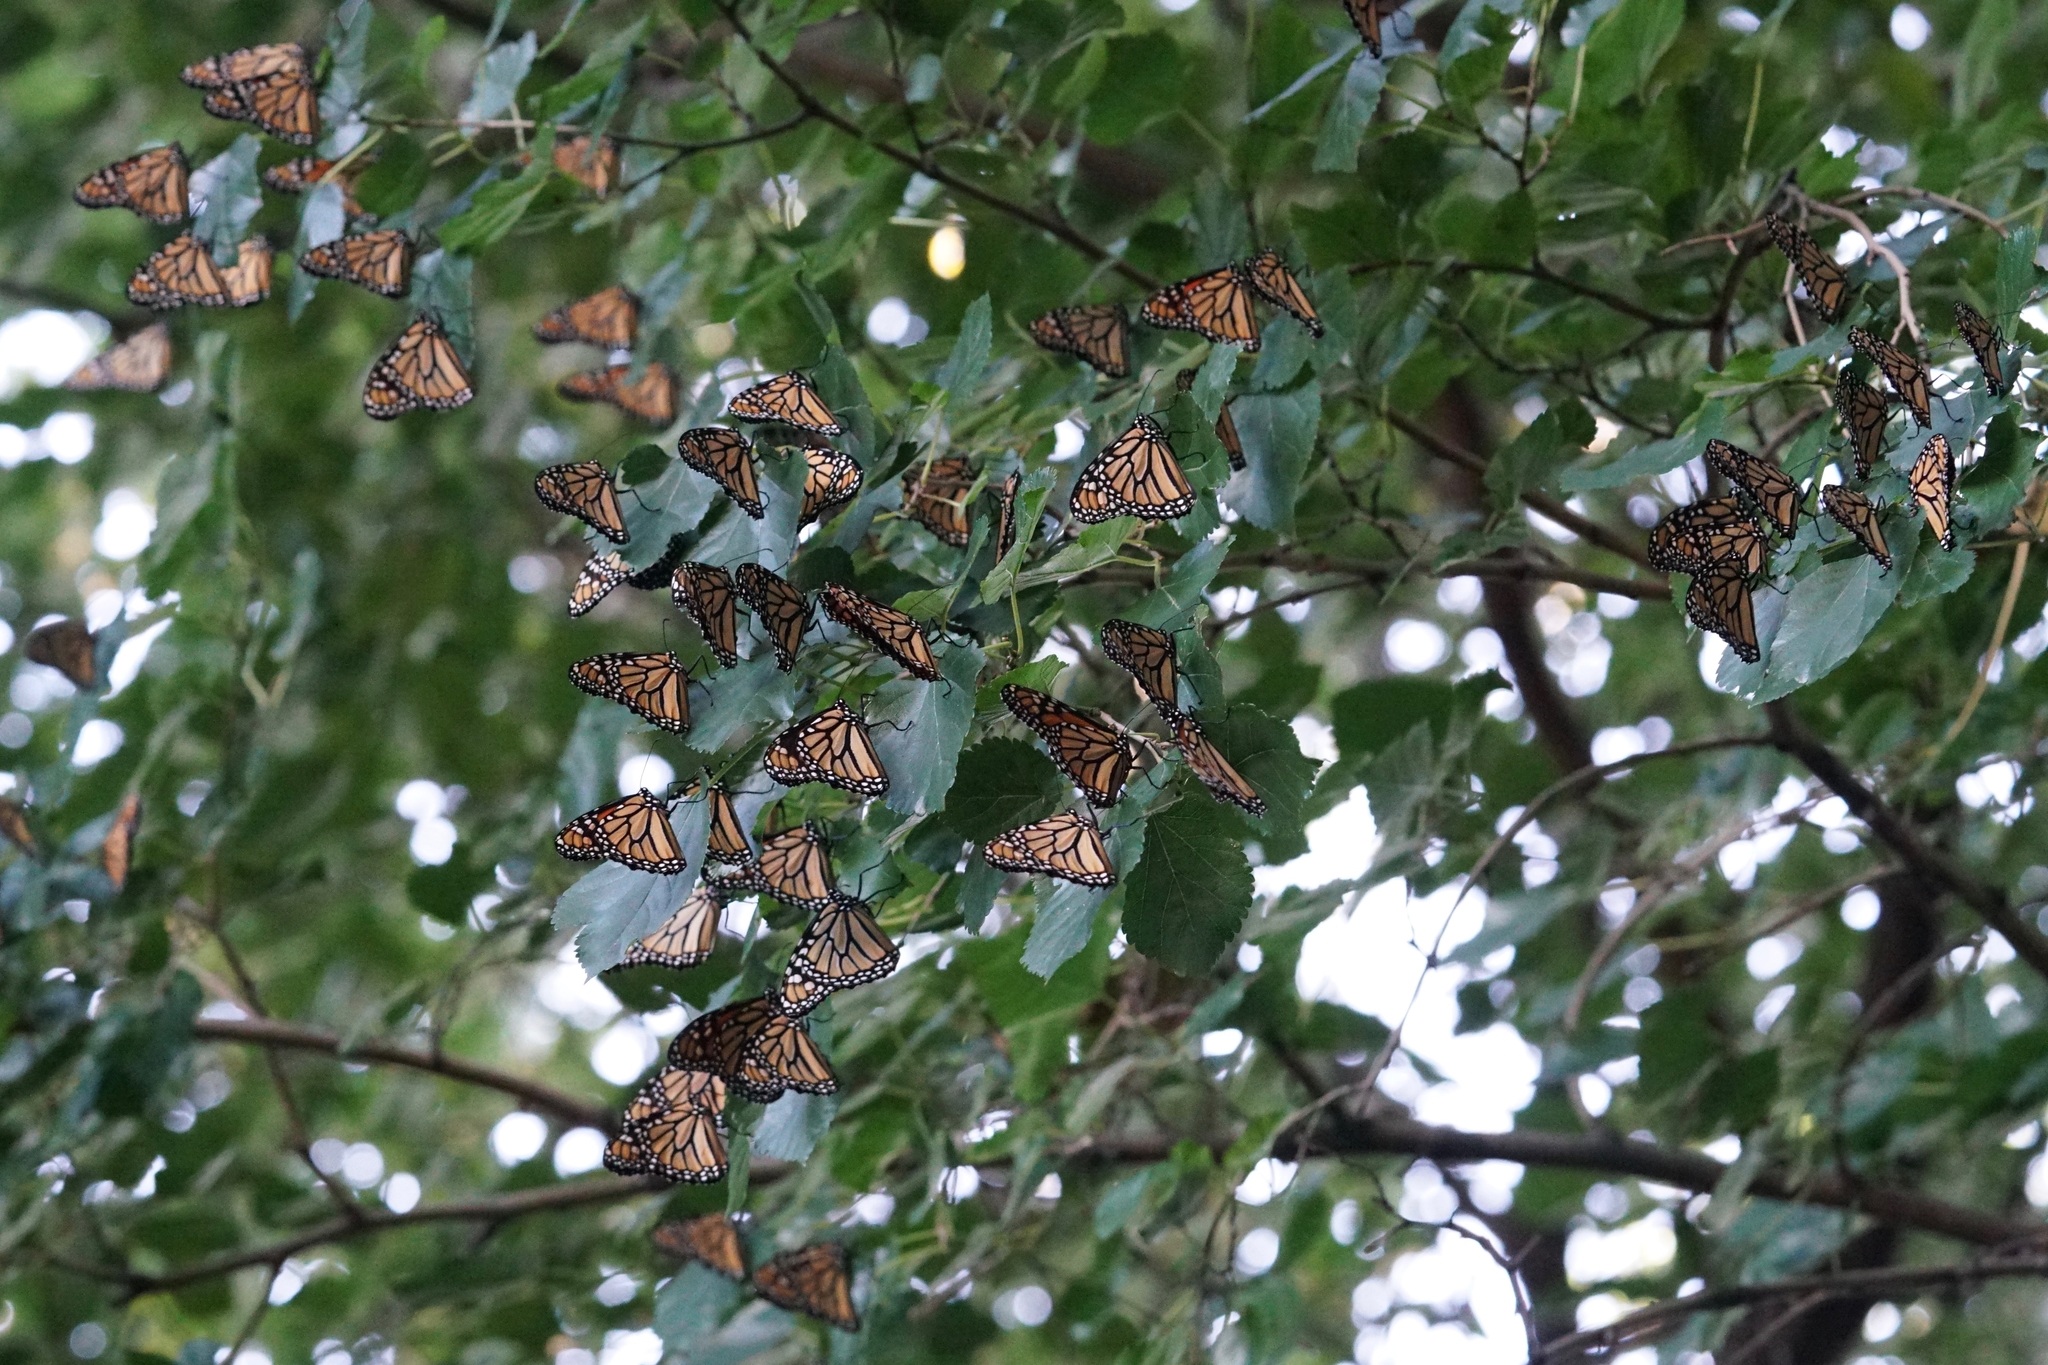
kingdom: Animalia
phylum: Arthropoda
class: Insecta
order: Lepidoptera
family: Nymphalidae
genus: Danaus
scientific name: Danaus plexippus
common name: Monarch
